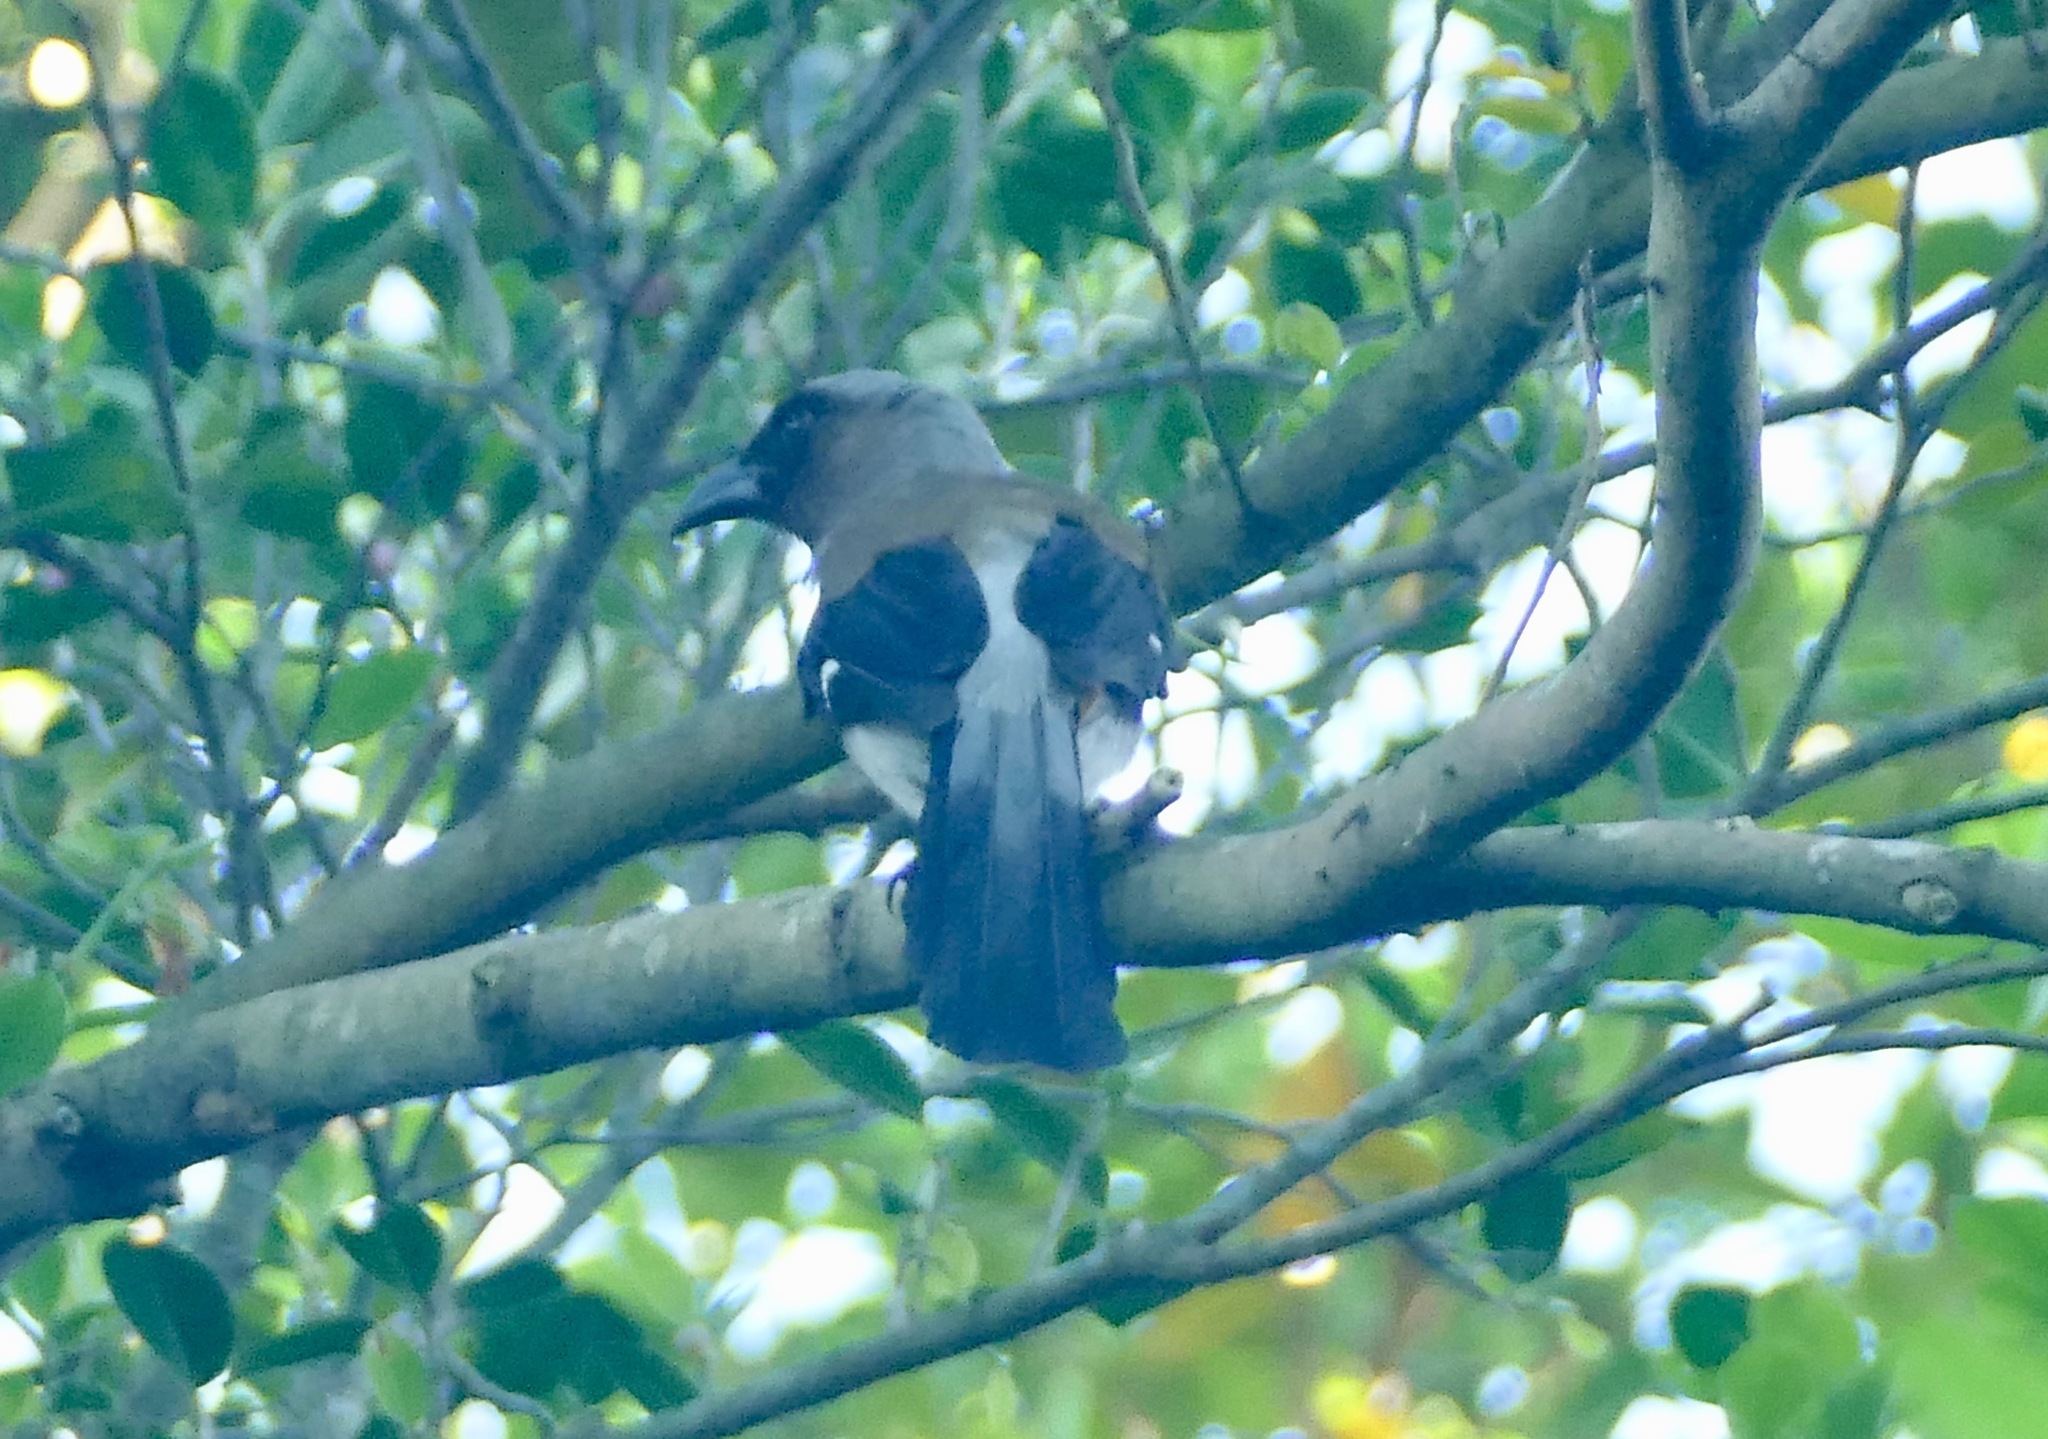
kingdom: Animalia
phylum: Chordata
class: Aves
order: Passeriformes
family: Corvidae
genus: Dendrocitta
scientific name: Dendrocitta formosae
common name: Grey treepie
